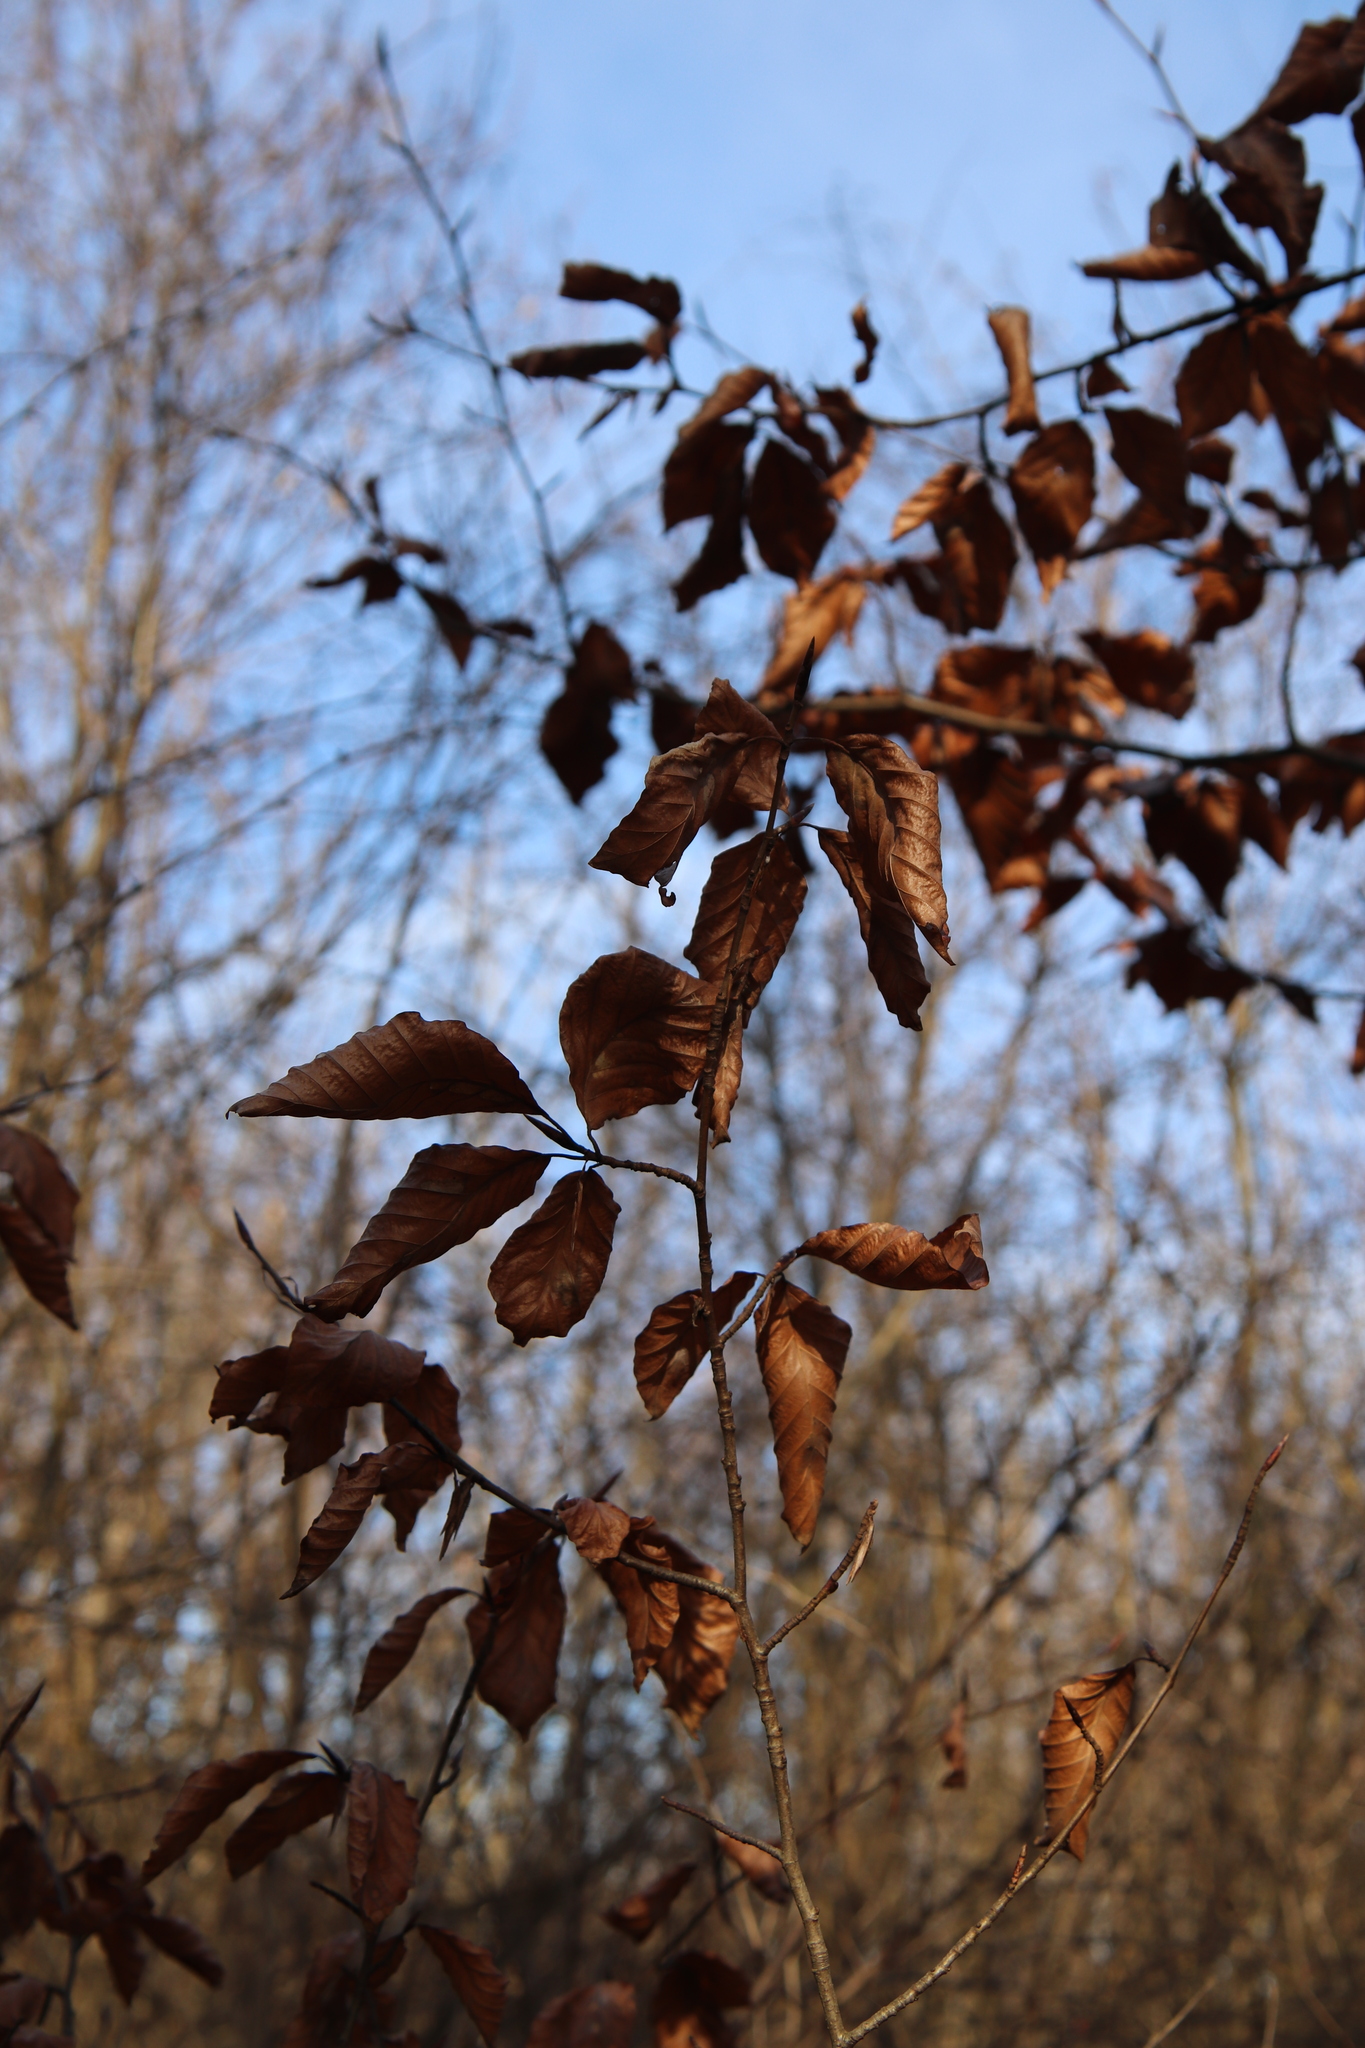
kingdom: Plantae
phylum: Tracheophyta
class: Magnoliopsida
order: Fagales
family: Fagaceae
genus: Fagus
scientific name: Fagus sylvatica
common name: Beech
